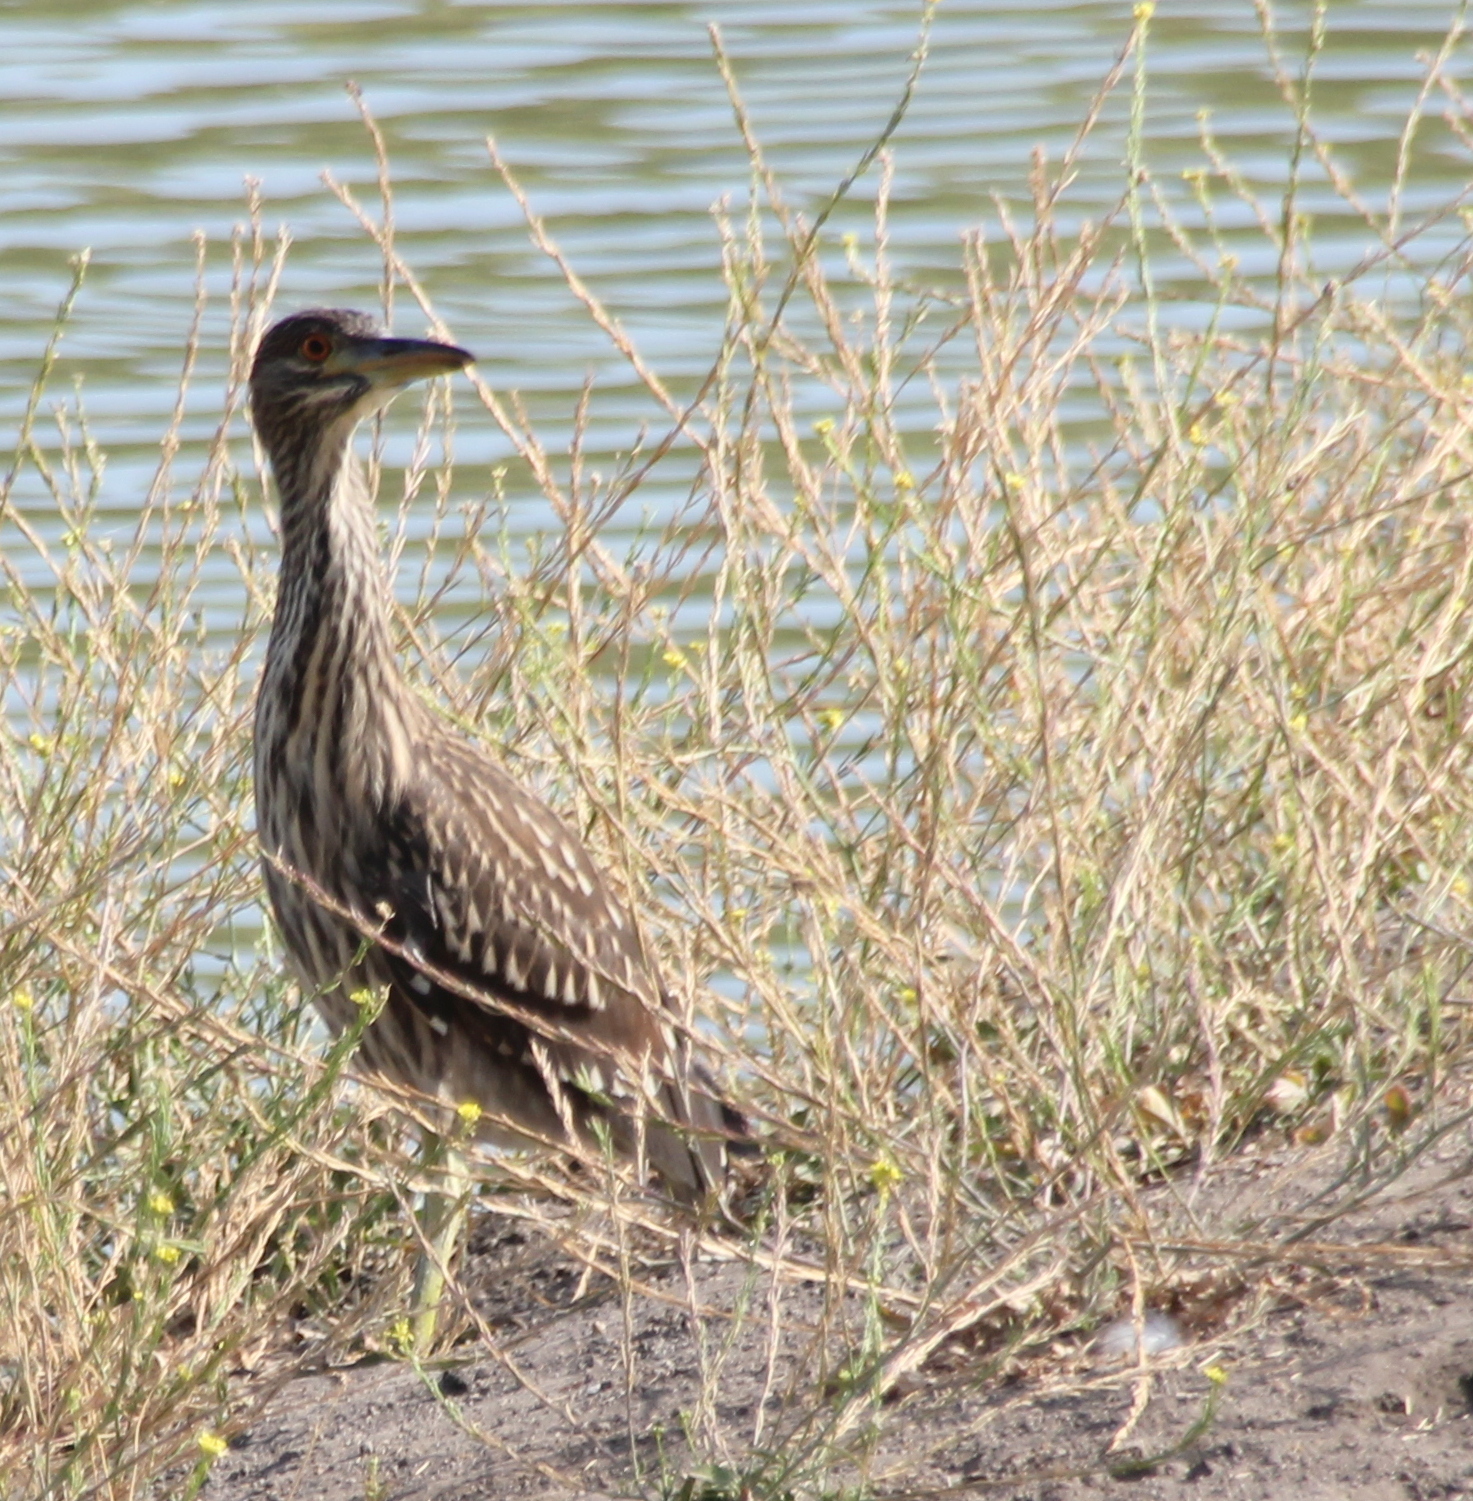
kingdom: Animalia
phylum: Chordata
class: Aves
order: Pelecaniformes
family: Ardeidae
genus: Nycticorax
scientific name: Nycticorax nycticorax
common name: Black-crowned night heron
